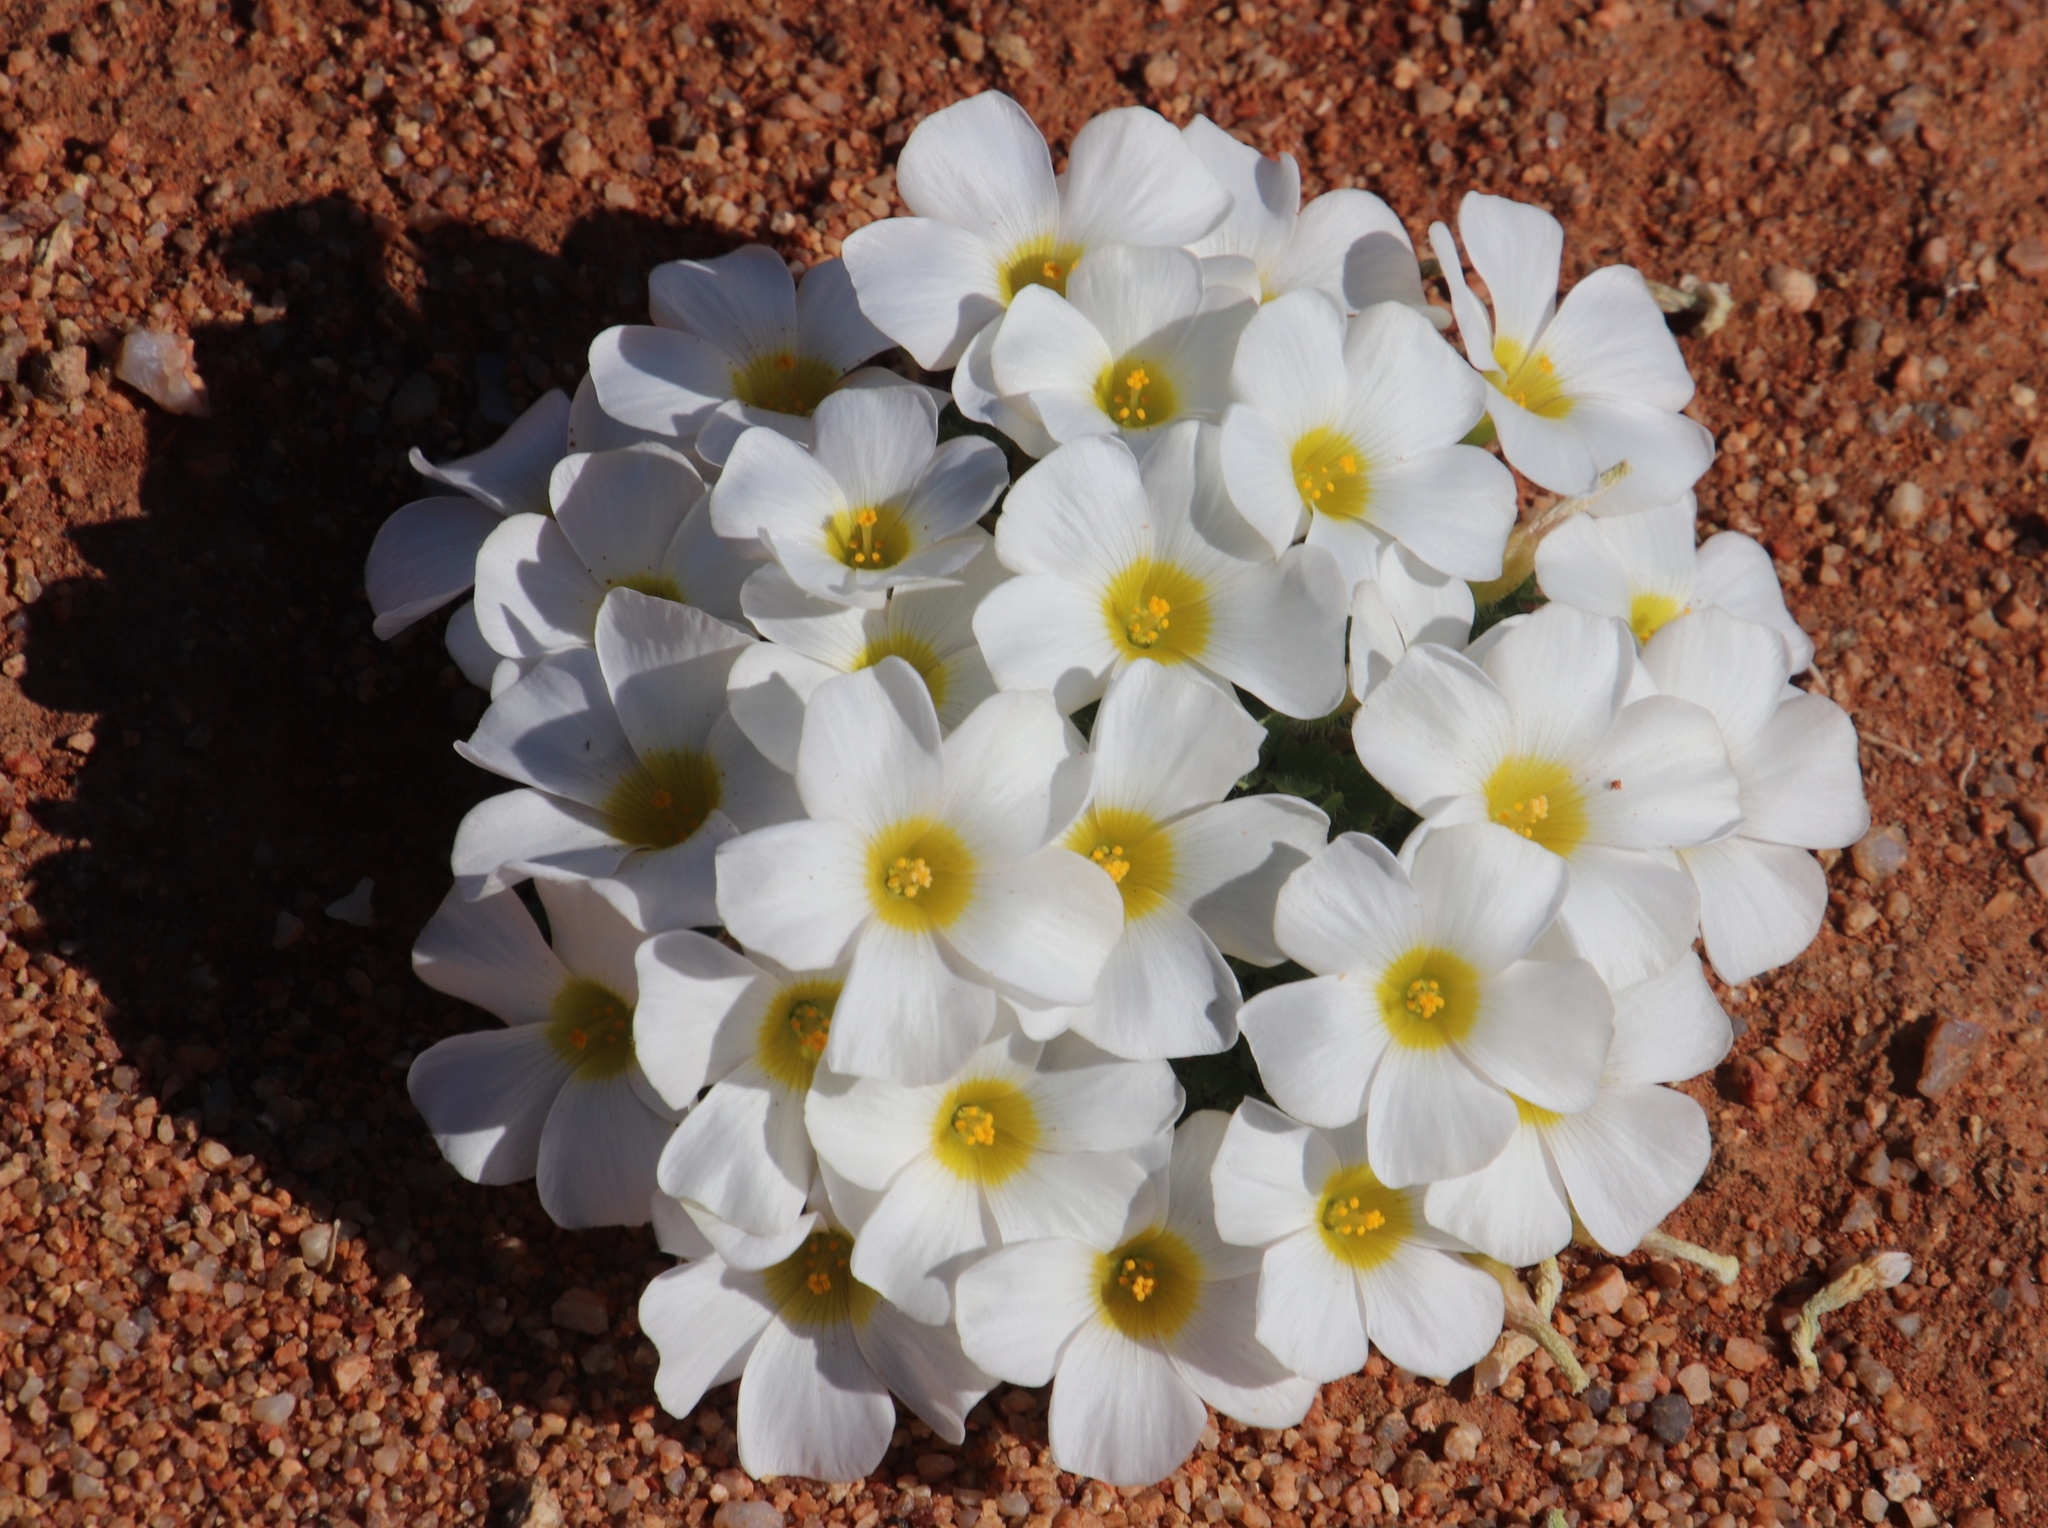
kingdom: Plantae
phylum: Tracheophyta
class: Magnoliopsida
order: Oxalidales
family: Oxalidaceae
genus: Oxalis
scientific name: Oxalis annae
